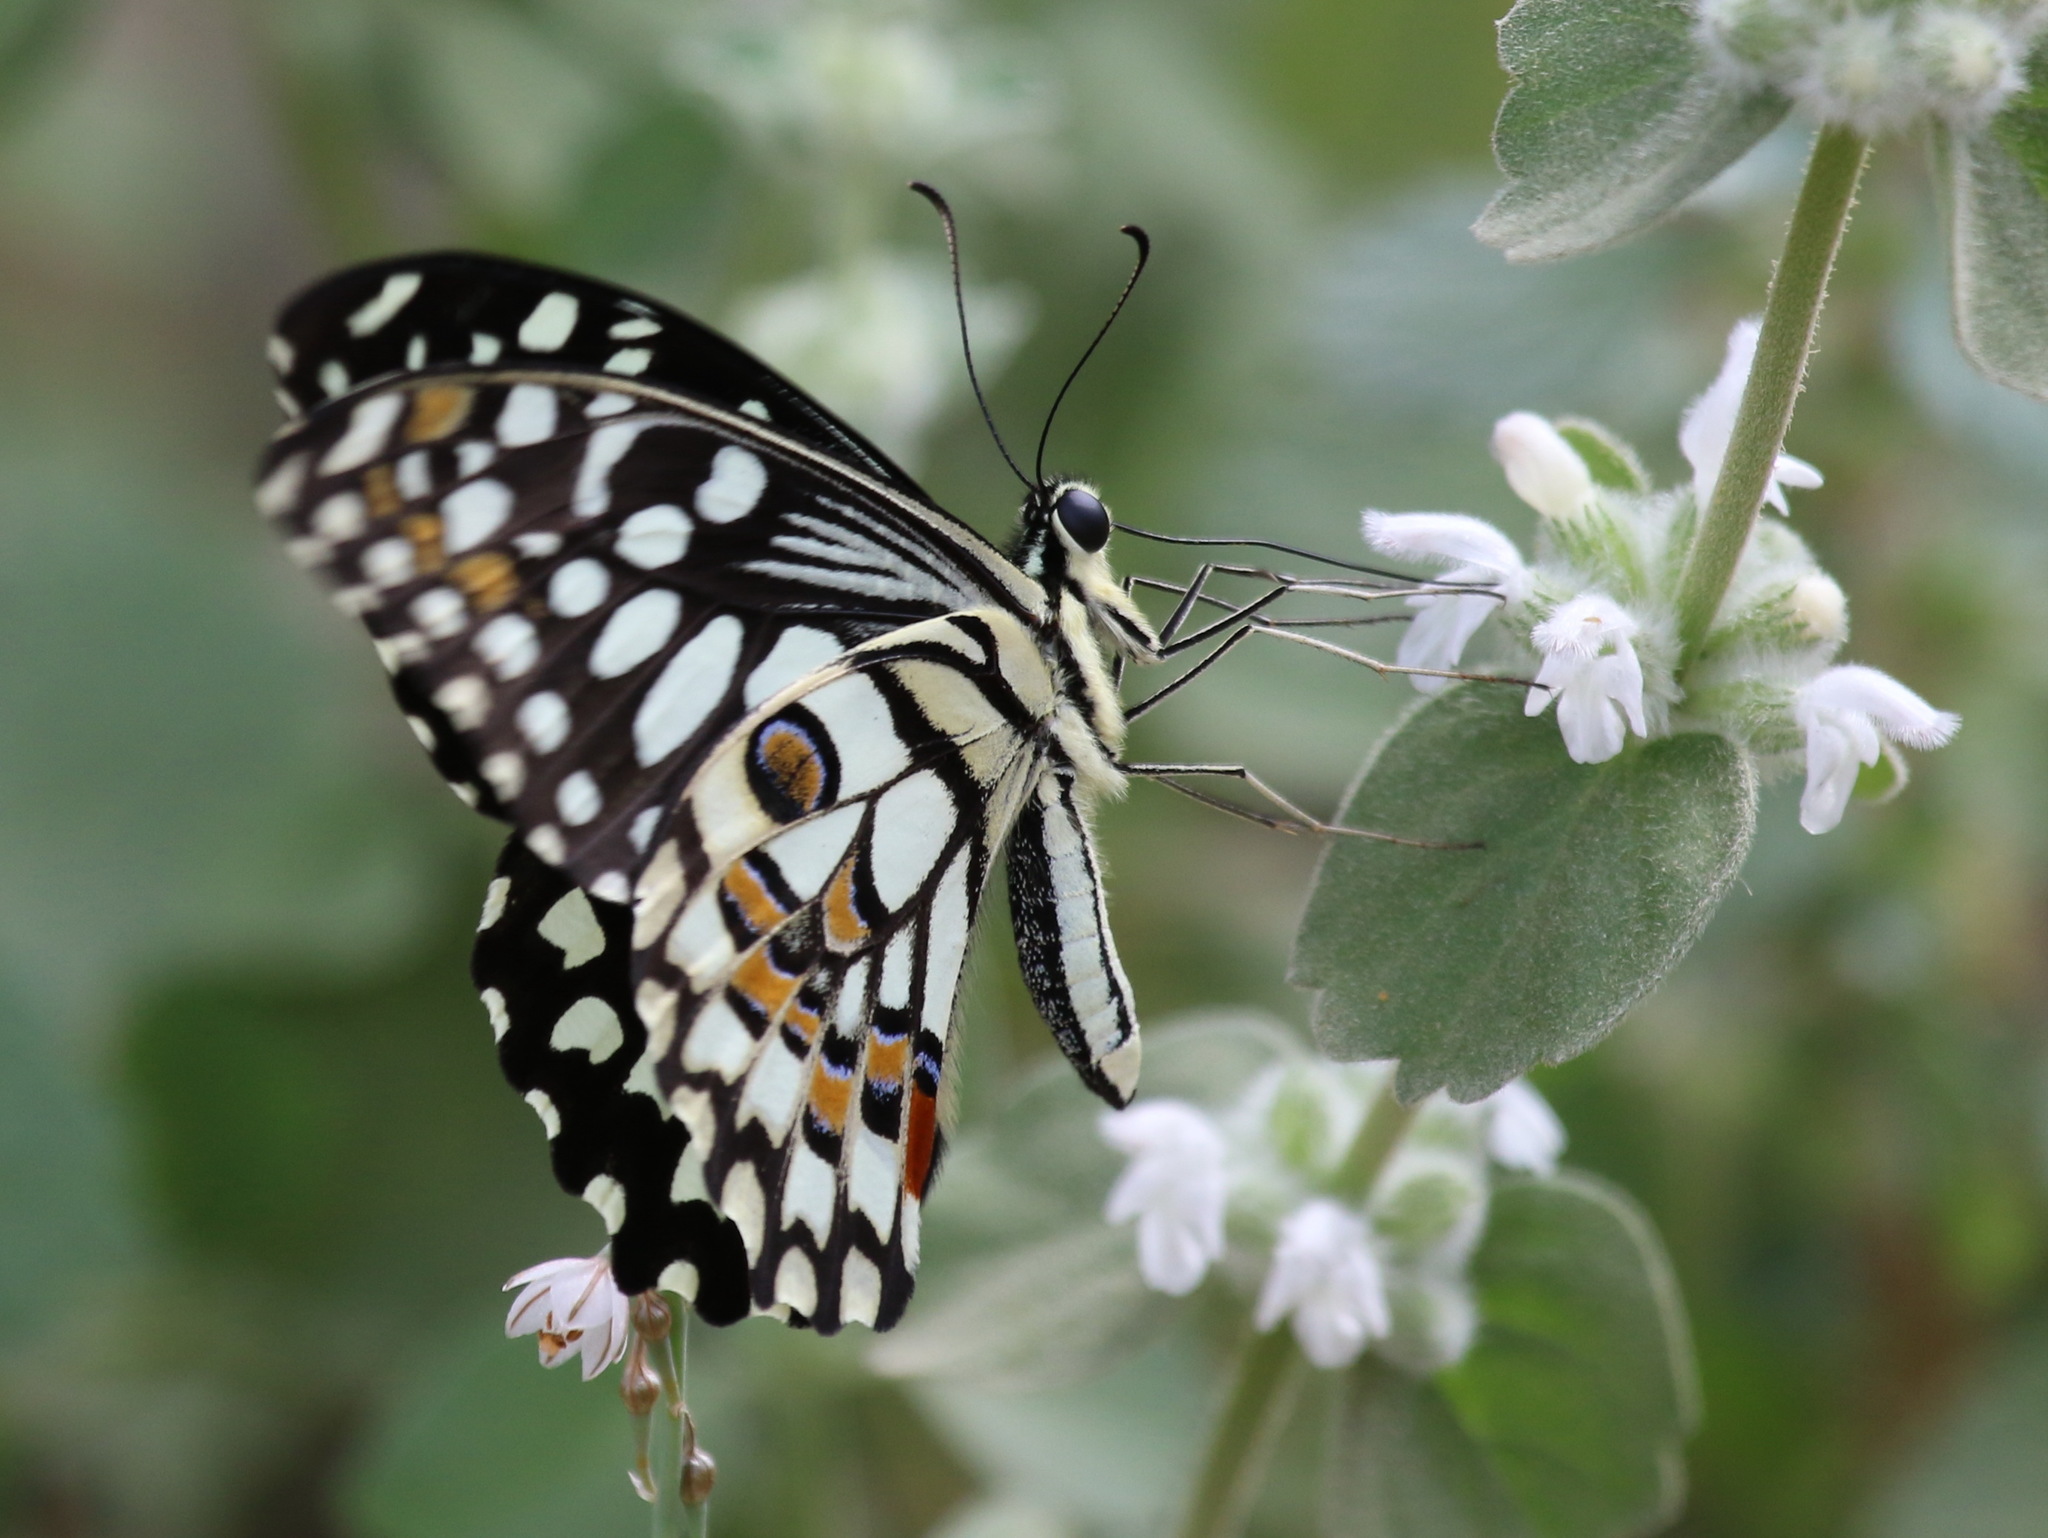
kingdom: Animalia
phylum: Arthropoda
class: Insecta
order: Lepidoptera
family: Papilionidae
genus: Papilio
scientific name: Papilio demoleus
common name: Lime butterfly
